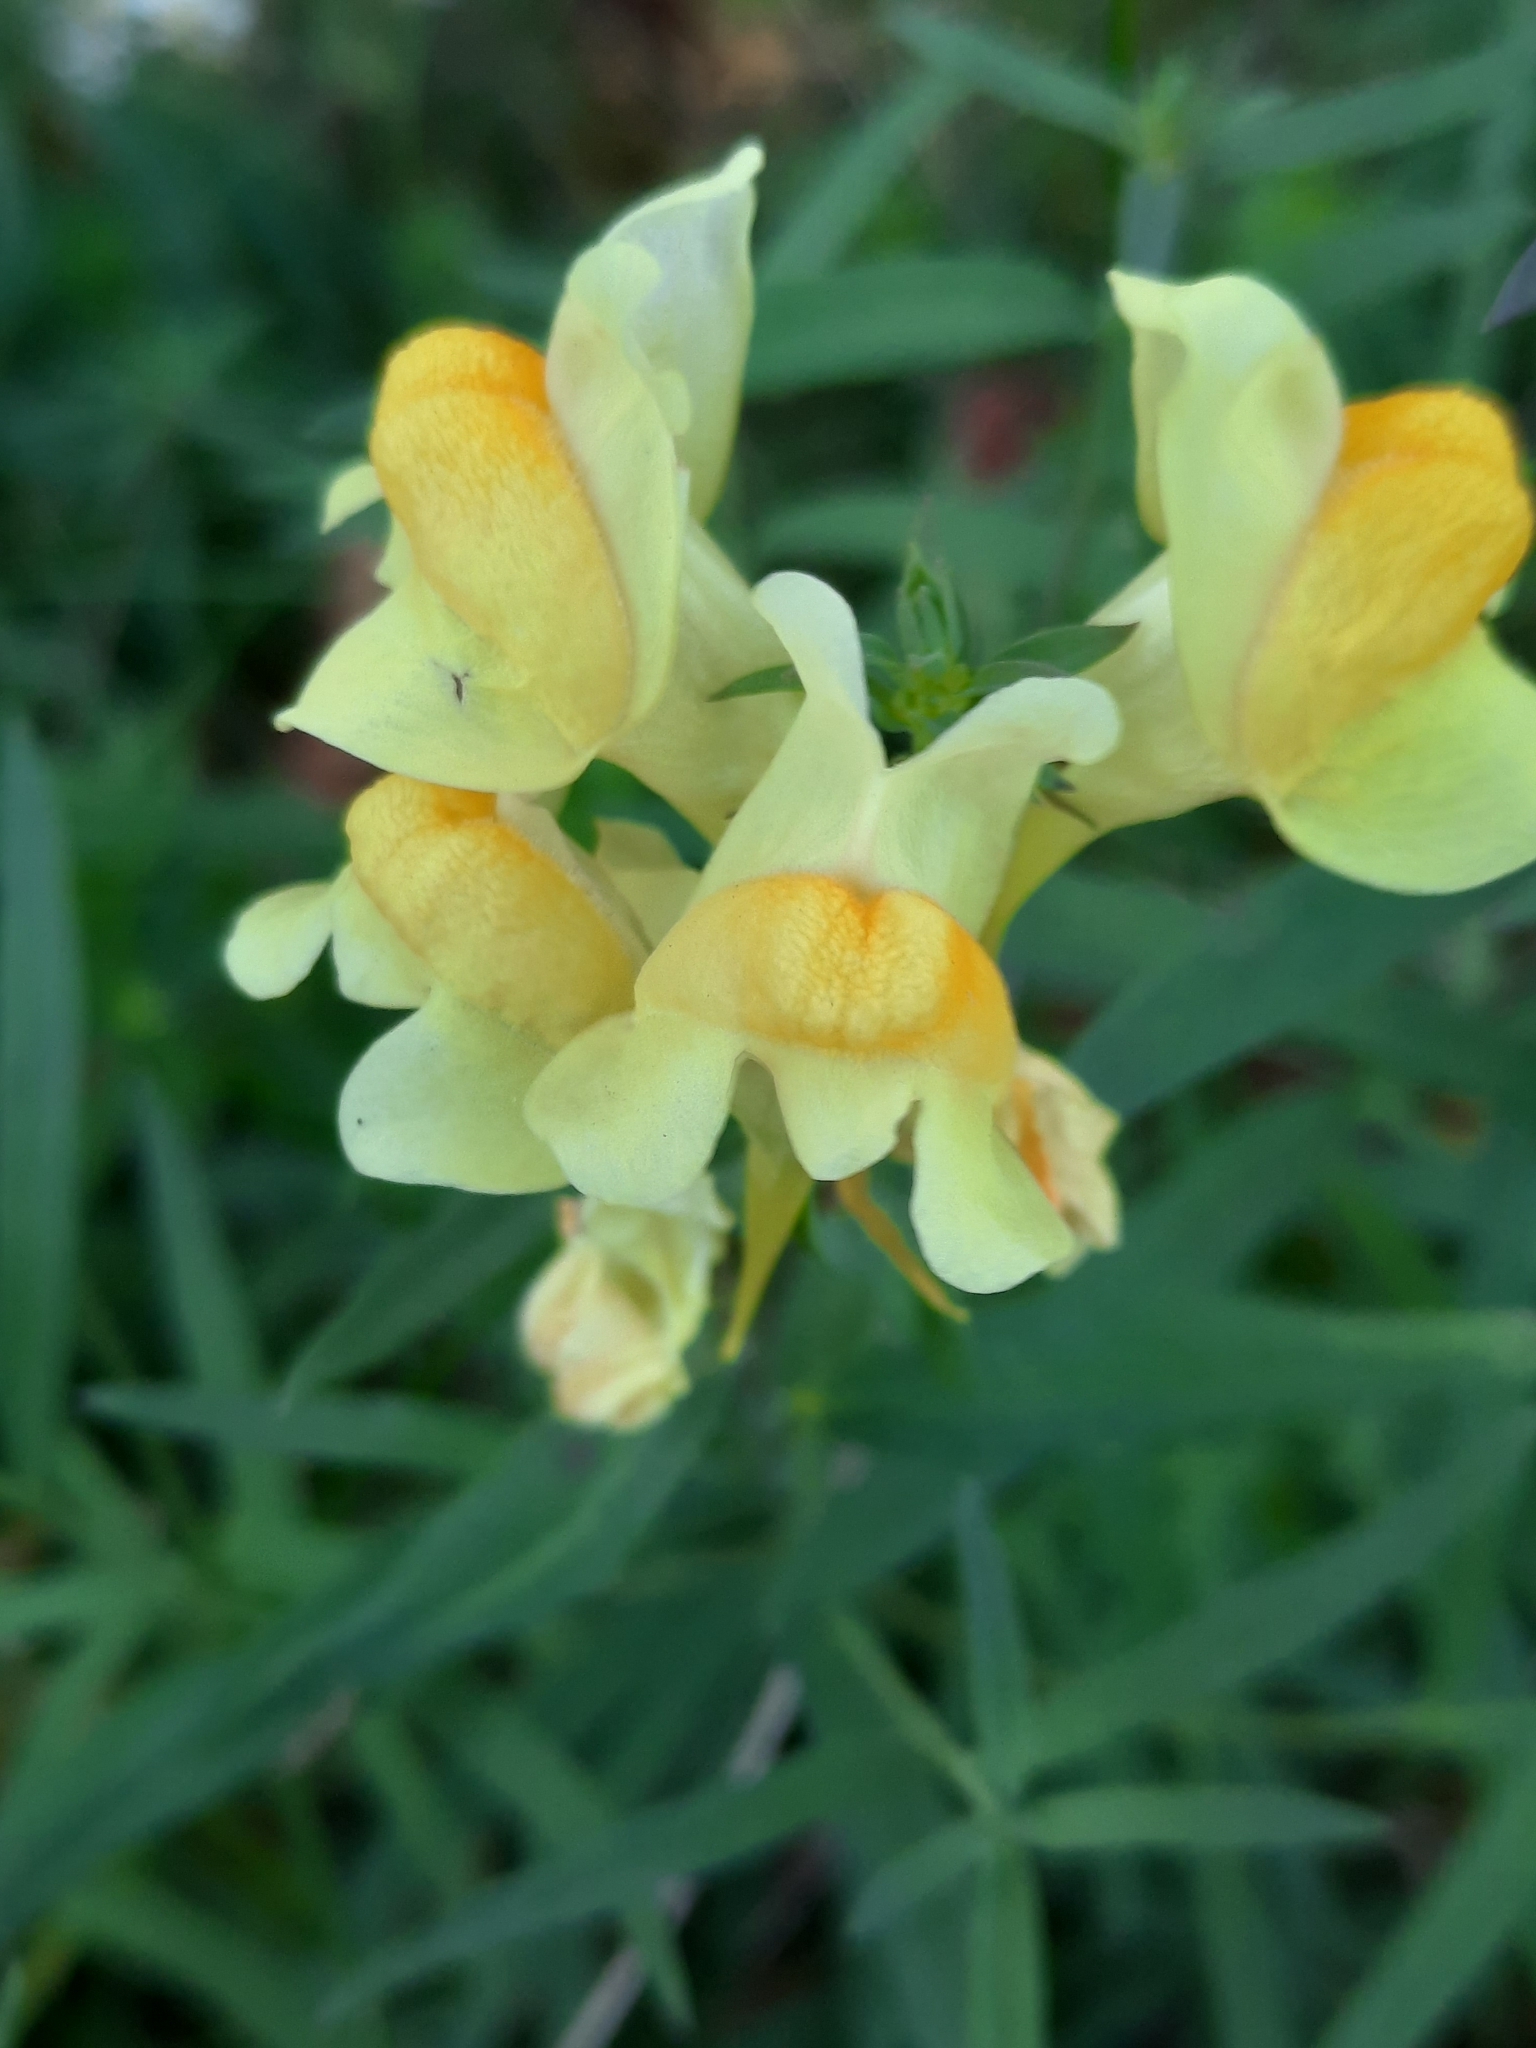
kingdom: Plantae
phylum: Tracheophyta
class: Magnoliopsida
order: Lamiales
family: Plantaginaceae
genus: Linaria
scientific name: Linaria vulgaris
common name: Butter and eggs
